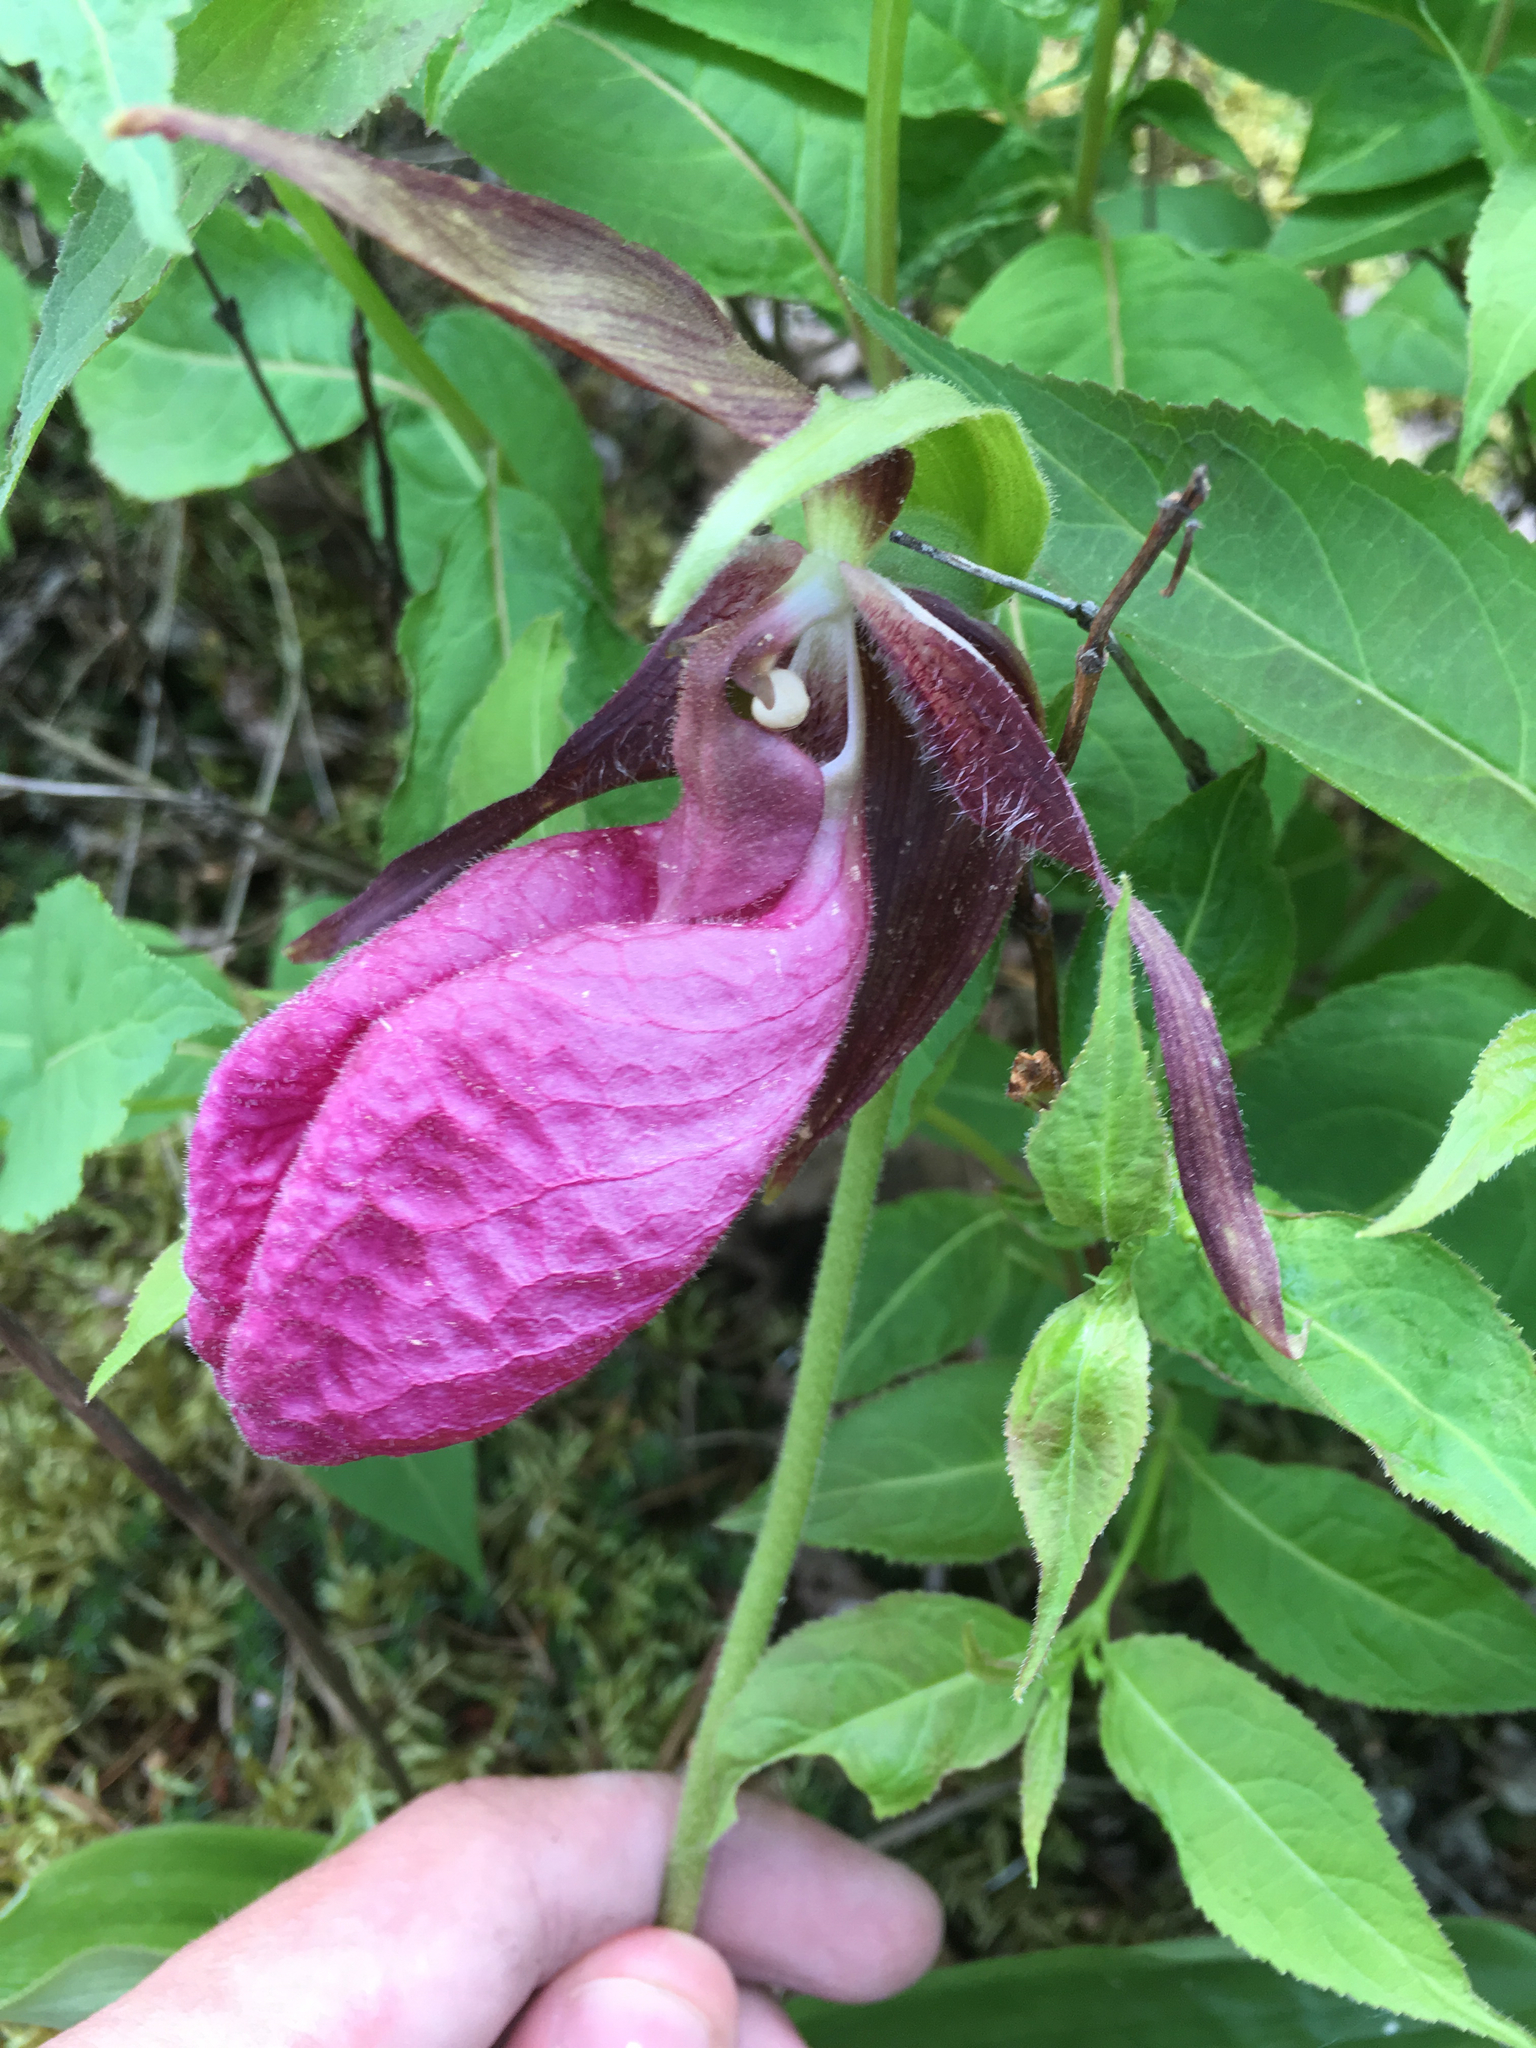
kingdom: Plantae
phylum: Tracheophyta
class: Liliopsida
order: Asparagales
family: Orchidaceae
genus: Cypripedium
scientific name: Cypripedium acaule
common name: Pink lady's-slipper
